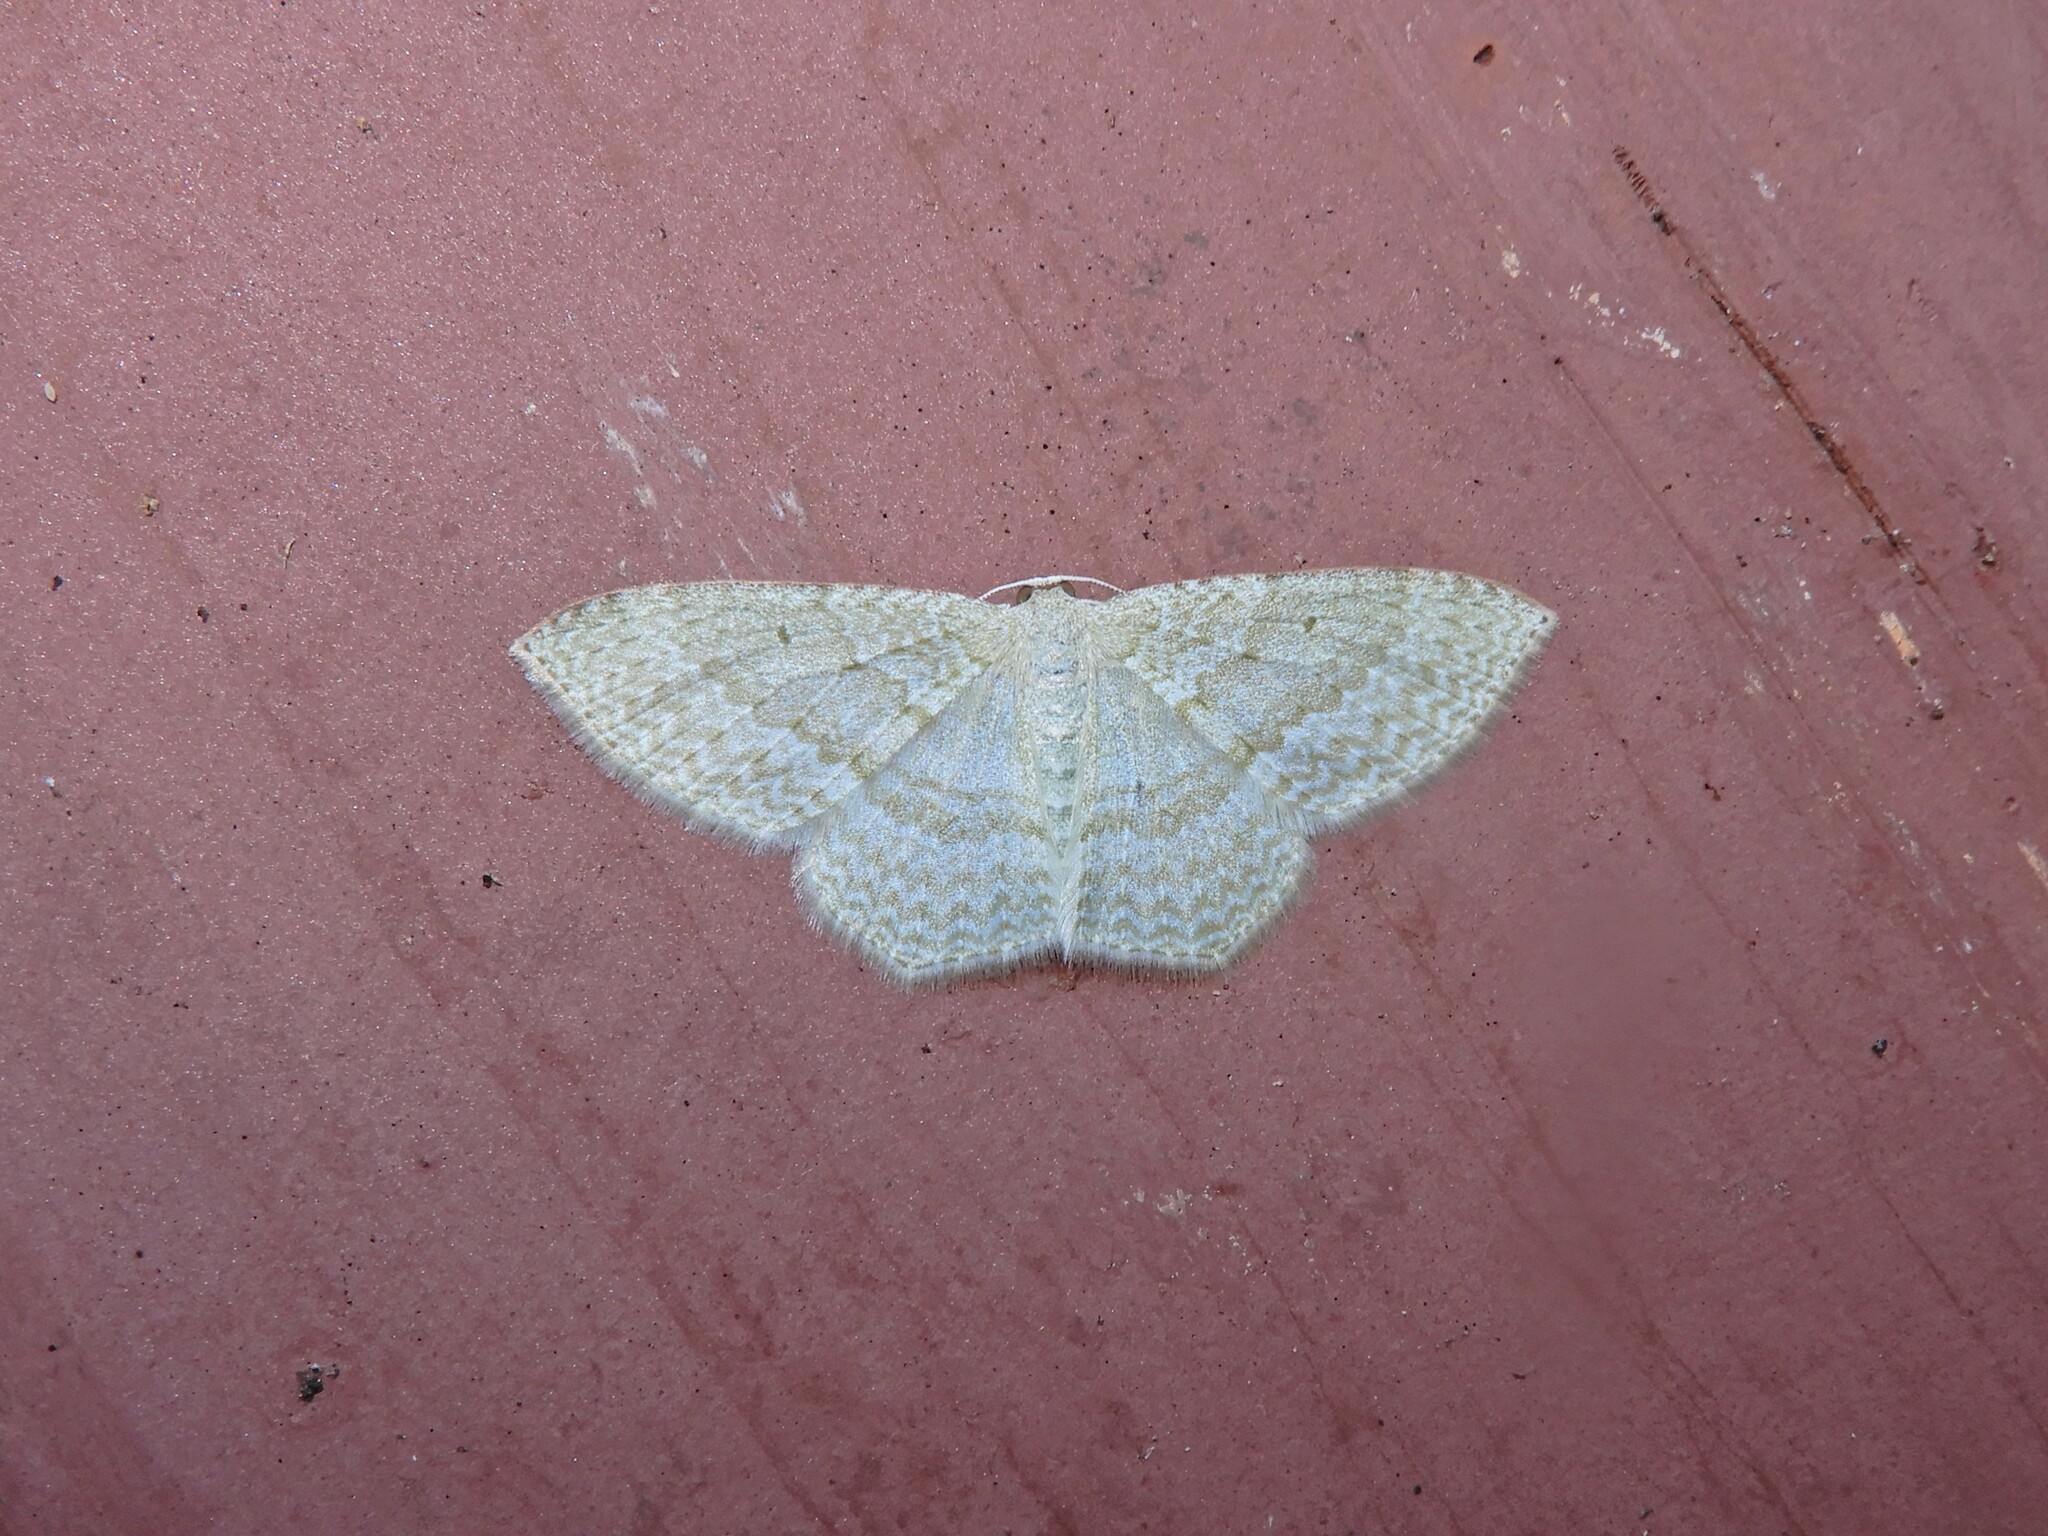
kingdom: Animalia
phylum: Arthropoda
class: Insecta
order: Lepidoptera
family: Geometridae
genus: Poecilasthena
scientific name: Poecilasthena pulchraria
